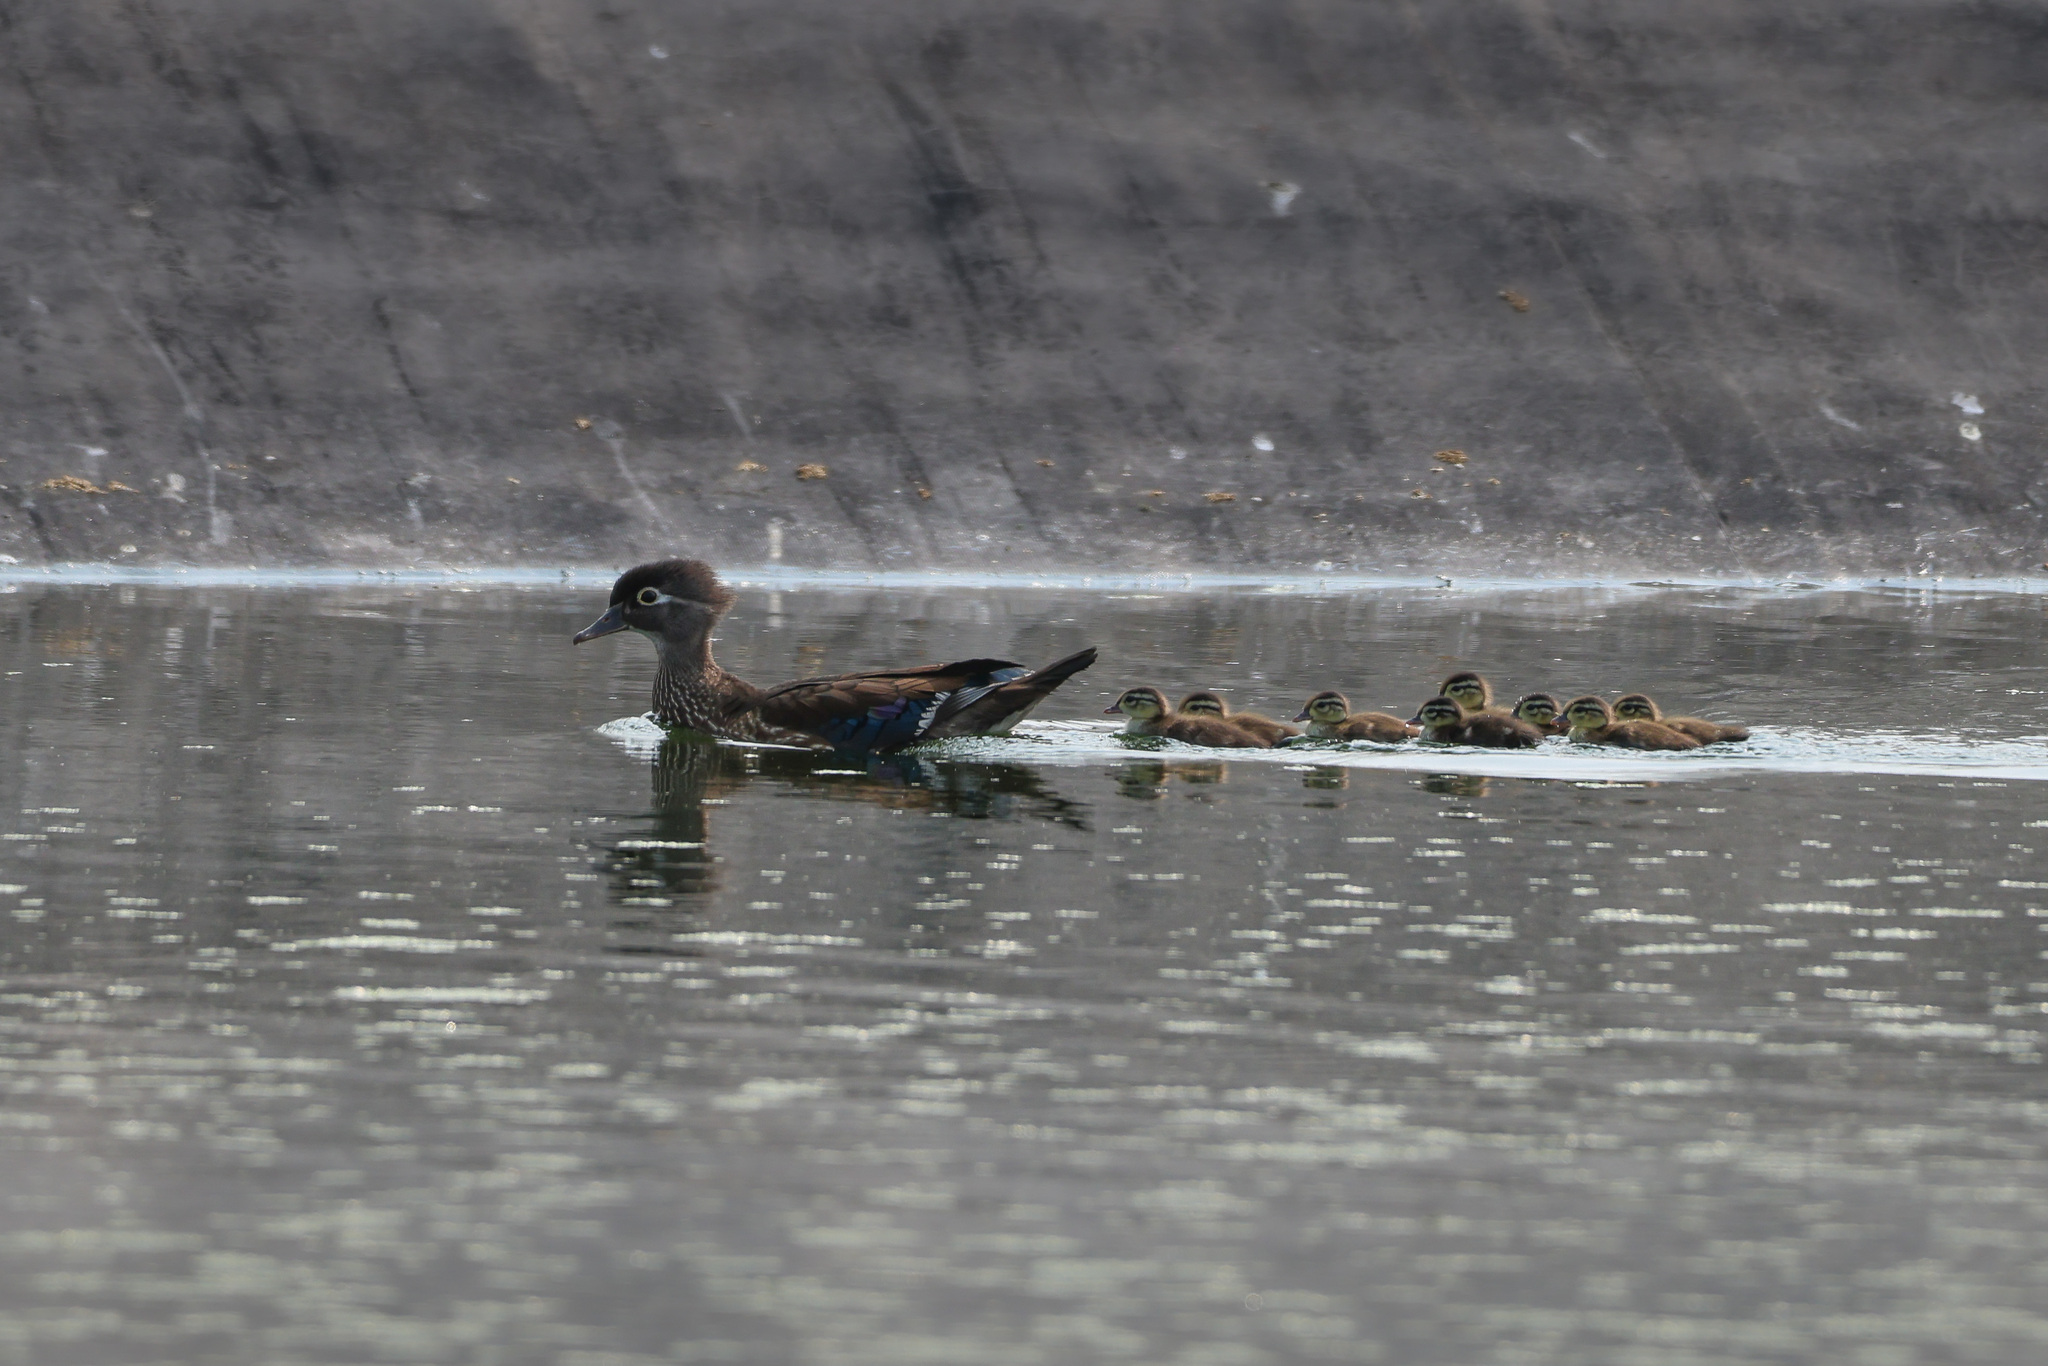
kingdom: Animalia
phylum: Chordata
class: Aves
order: Anseriformes
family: Anatidae
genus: Aix
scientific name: Aix sponsa
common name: Wood duck
